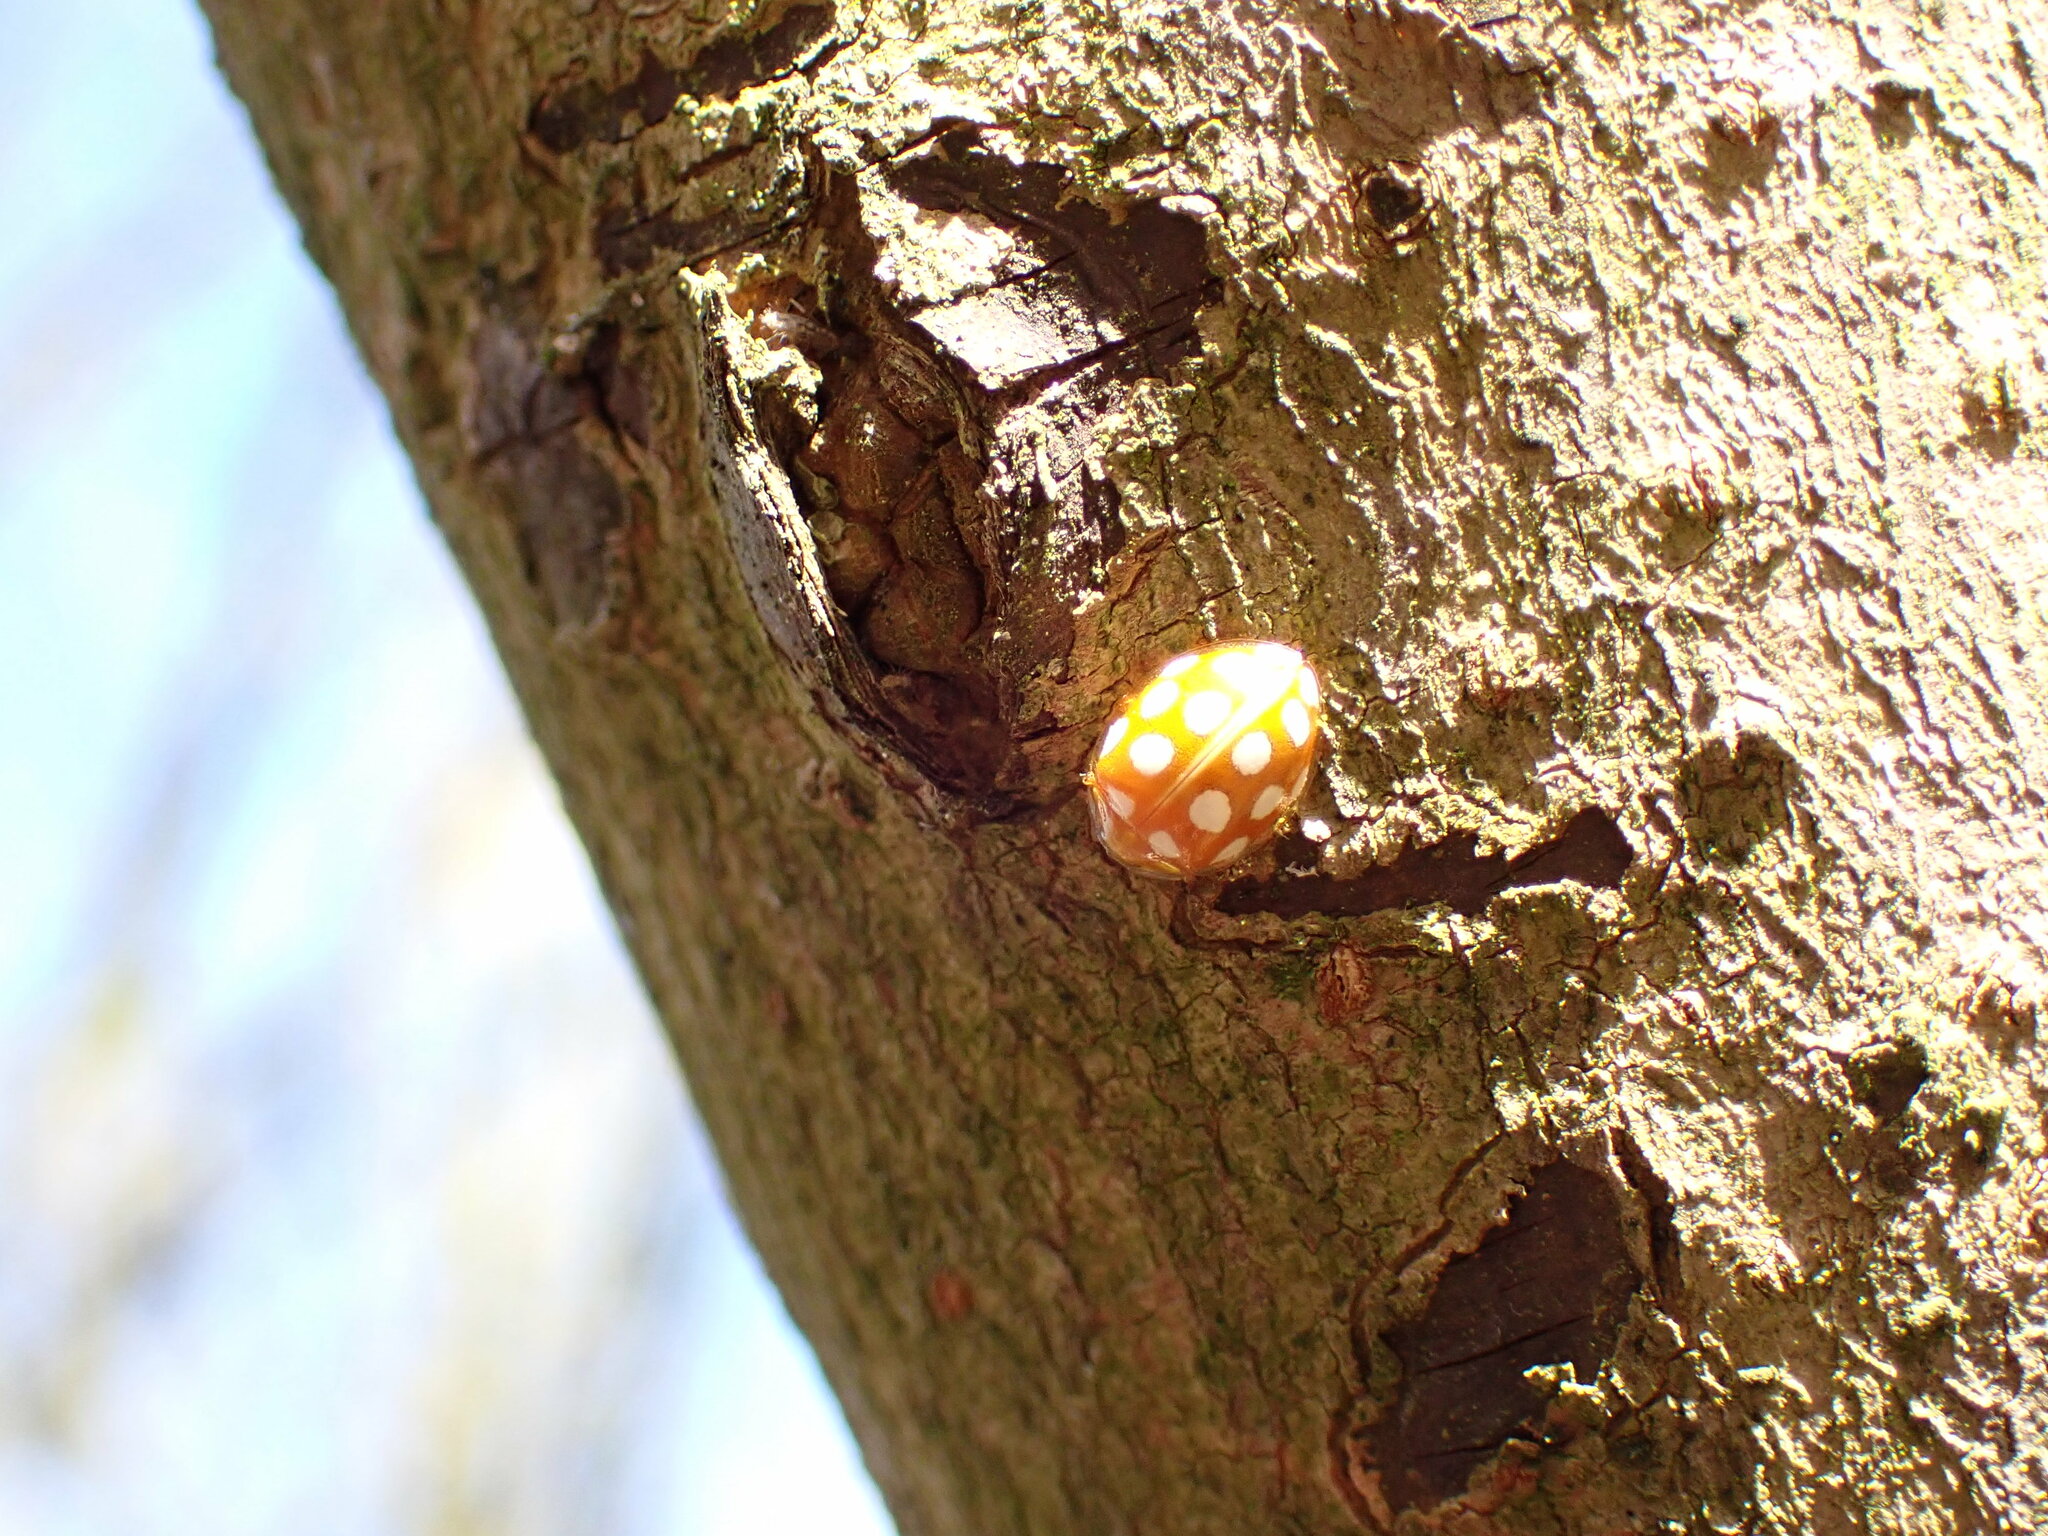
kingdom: Animalia
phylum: Arthropoda
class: Insecta
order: Coleoptera
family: Coccinellidae
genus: Halyzia
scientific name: Halyzia sedecimguttata
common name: Orange ladybird
